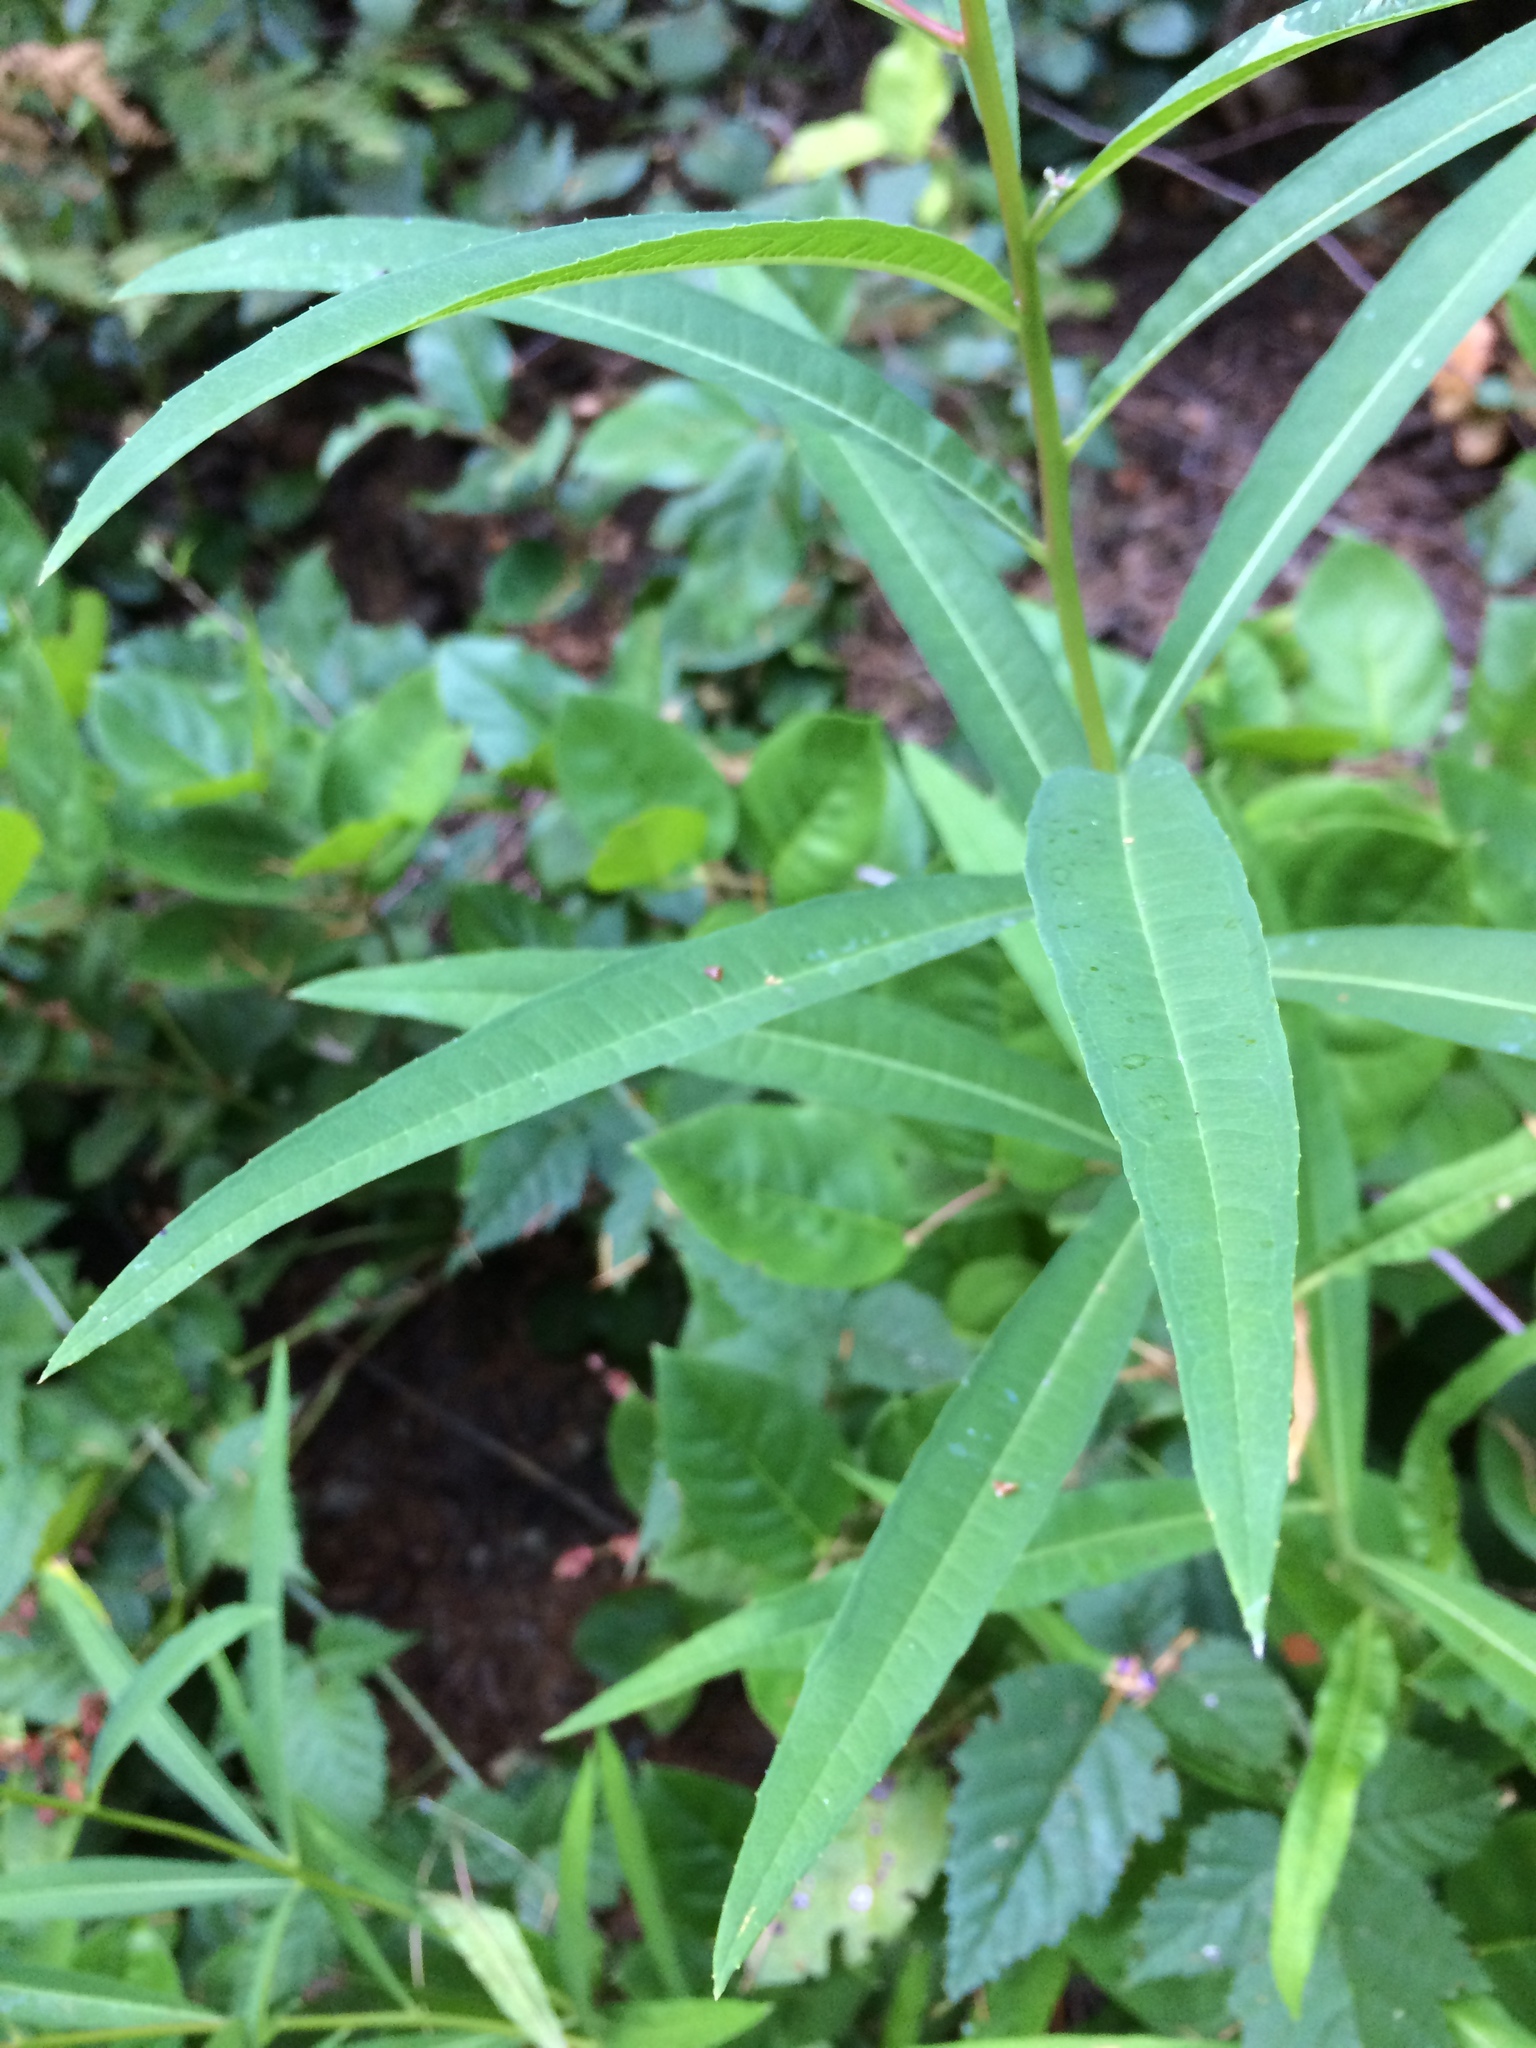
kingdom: Plantae
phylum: Tracheophyta
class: Magnoliopsida
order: Myrtales
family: Onagraceae
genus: Chamaenerion
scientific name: Chamaenerion angustifolium
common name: Fireweed
